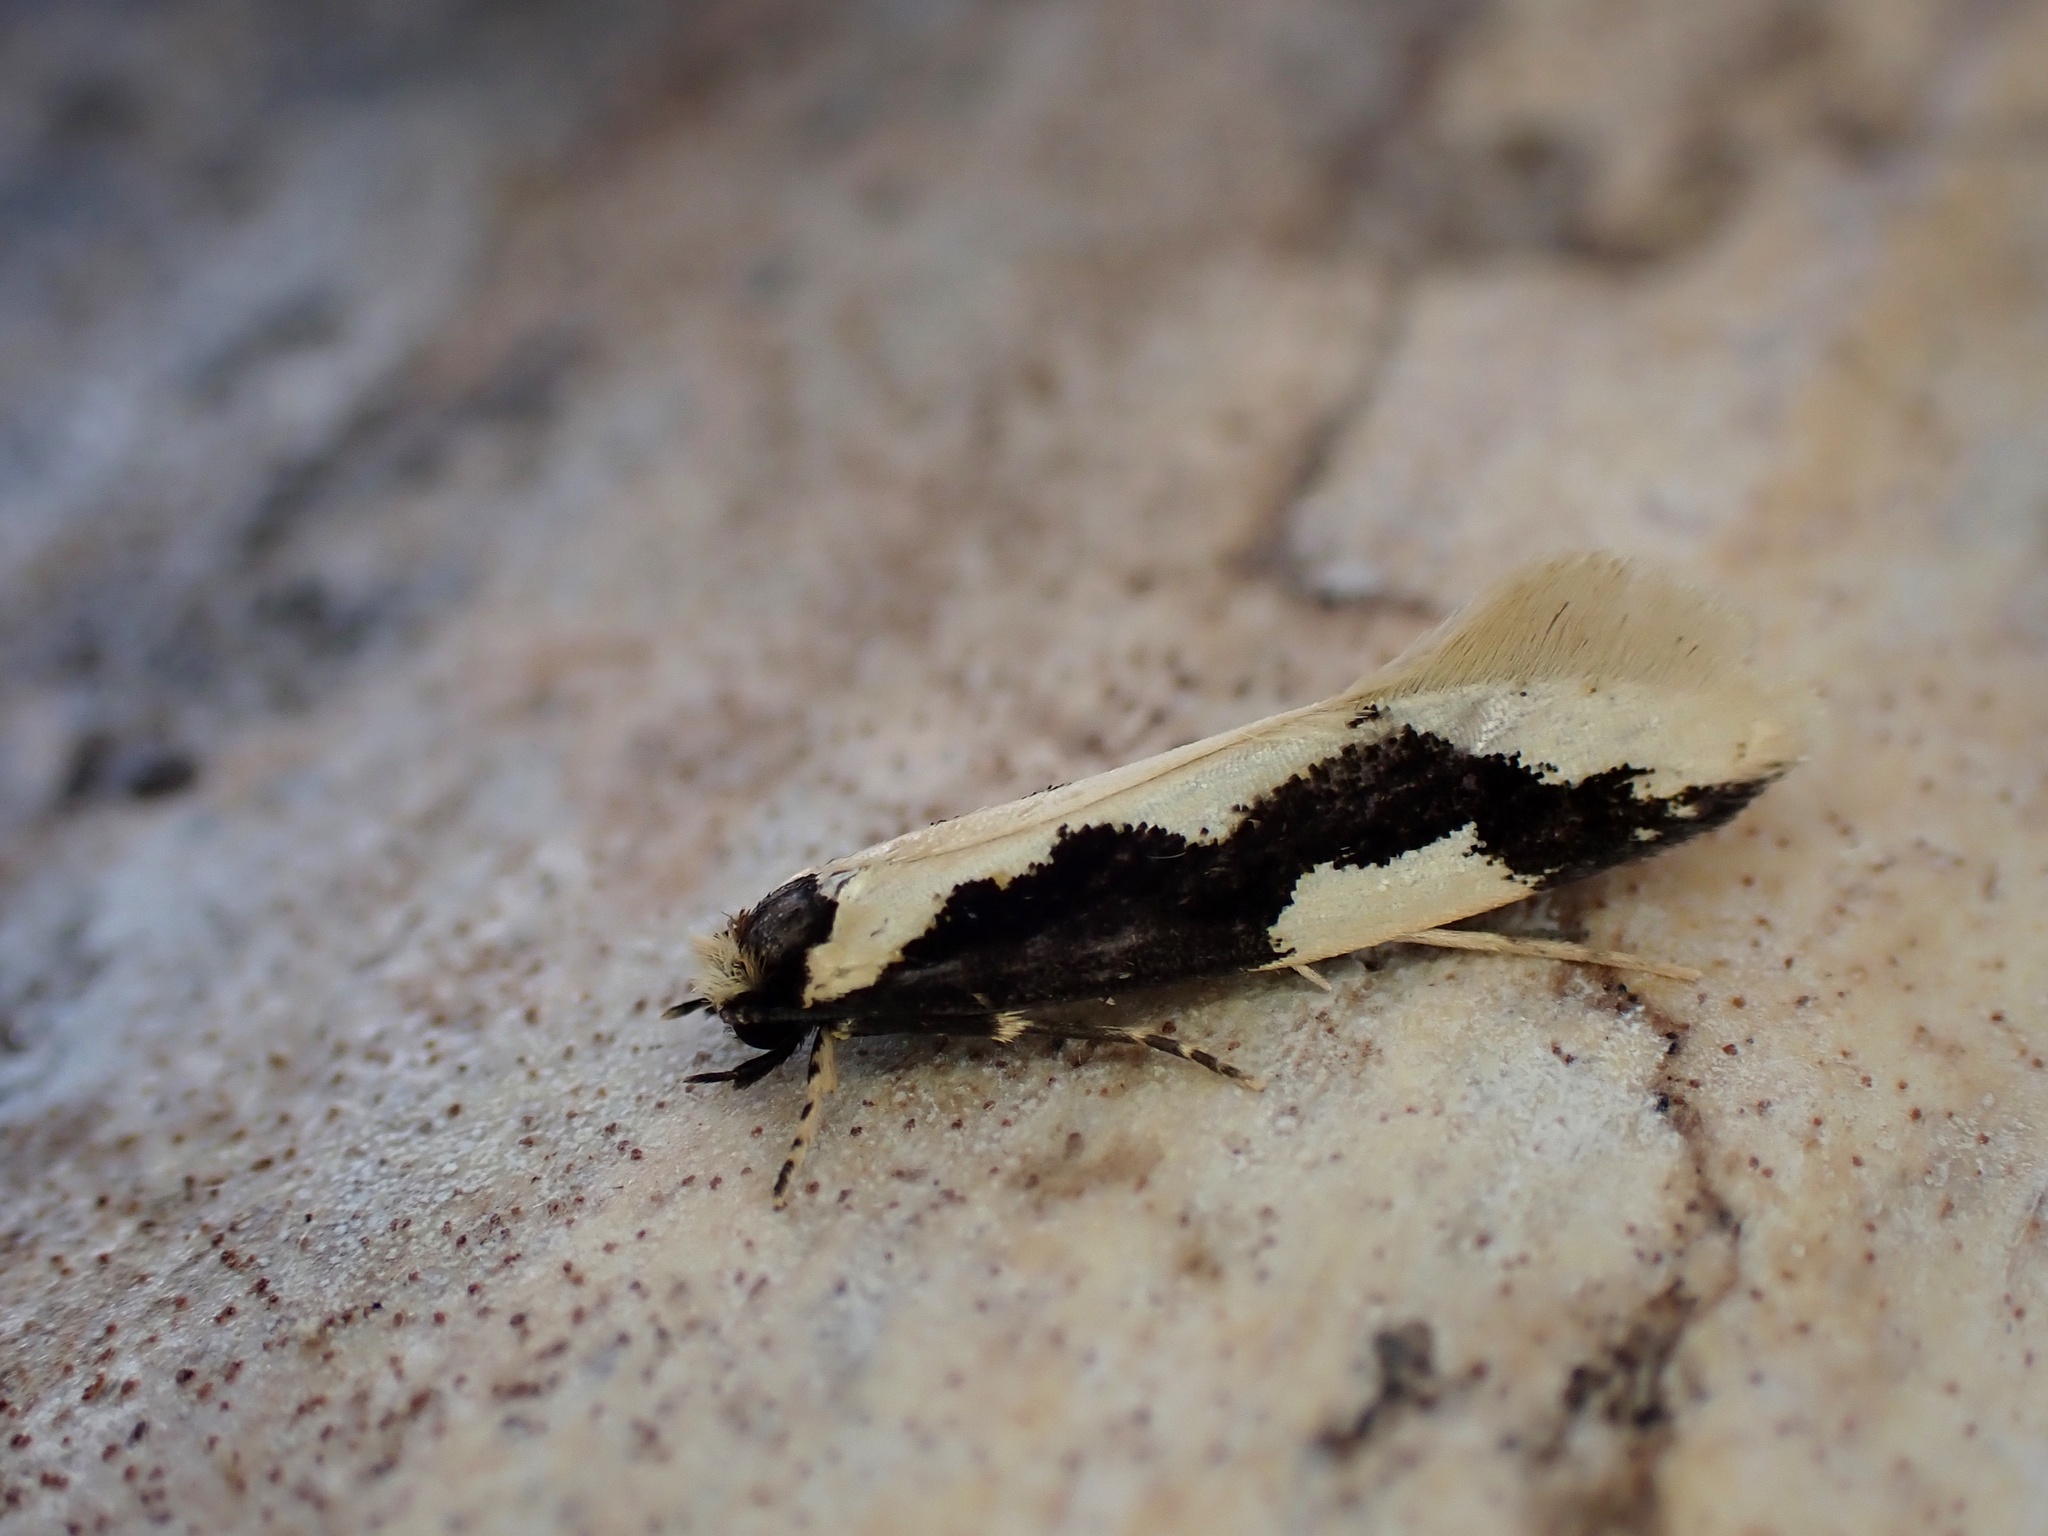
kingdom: Animalia
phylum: Arthropoda
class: Insecta
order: Lepidoptera
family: Tineidae
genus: Thallostoma
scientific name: Thallostoma eurygrapha
